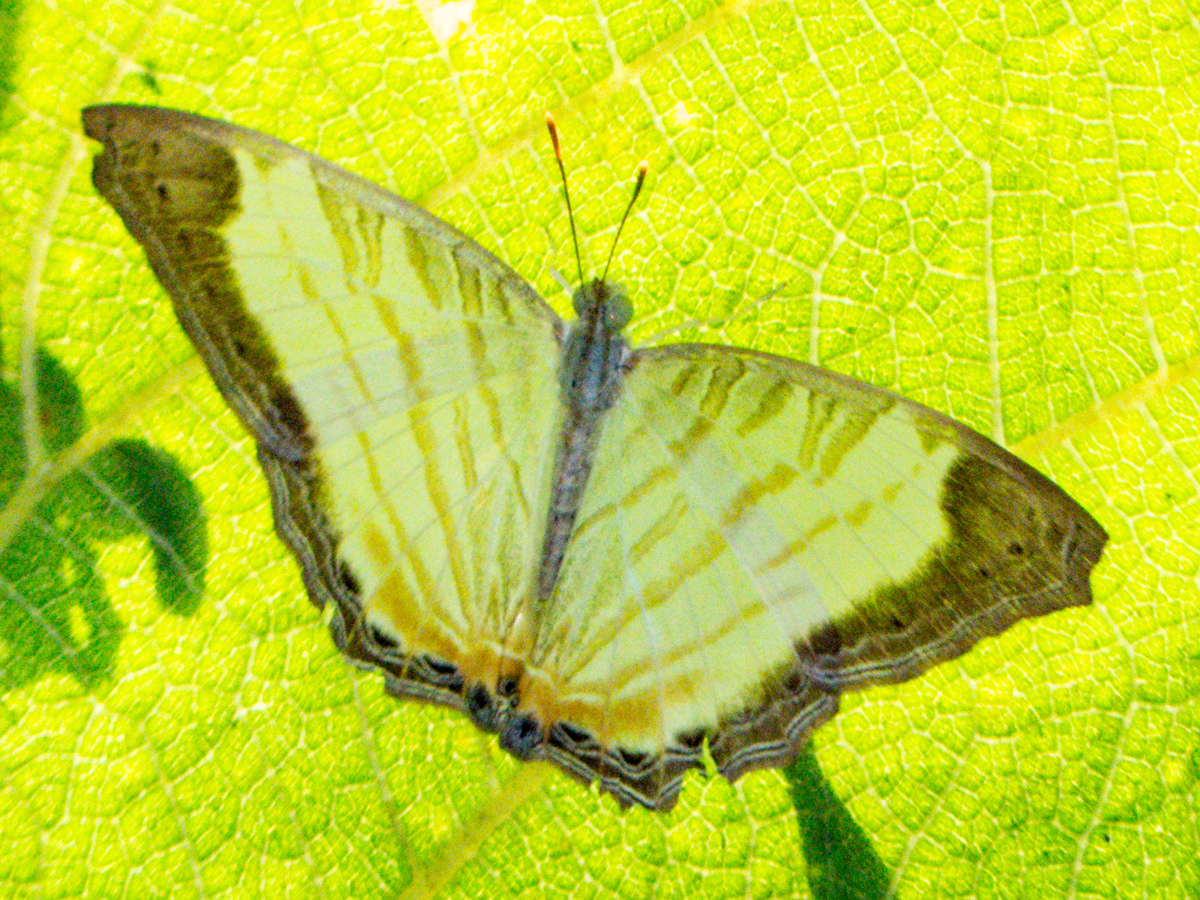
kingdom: Animalia
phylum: Arthropoda
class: Insecta
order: Lepidoptera
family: Nymphalidae
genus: Cyrestis
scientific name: Cyrestis themire
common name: Little mapwing
